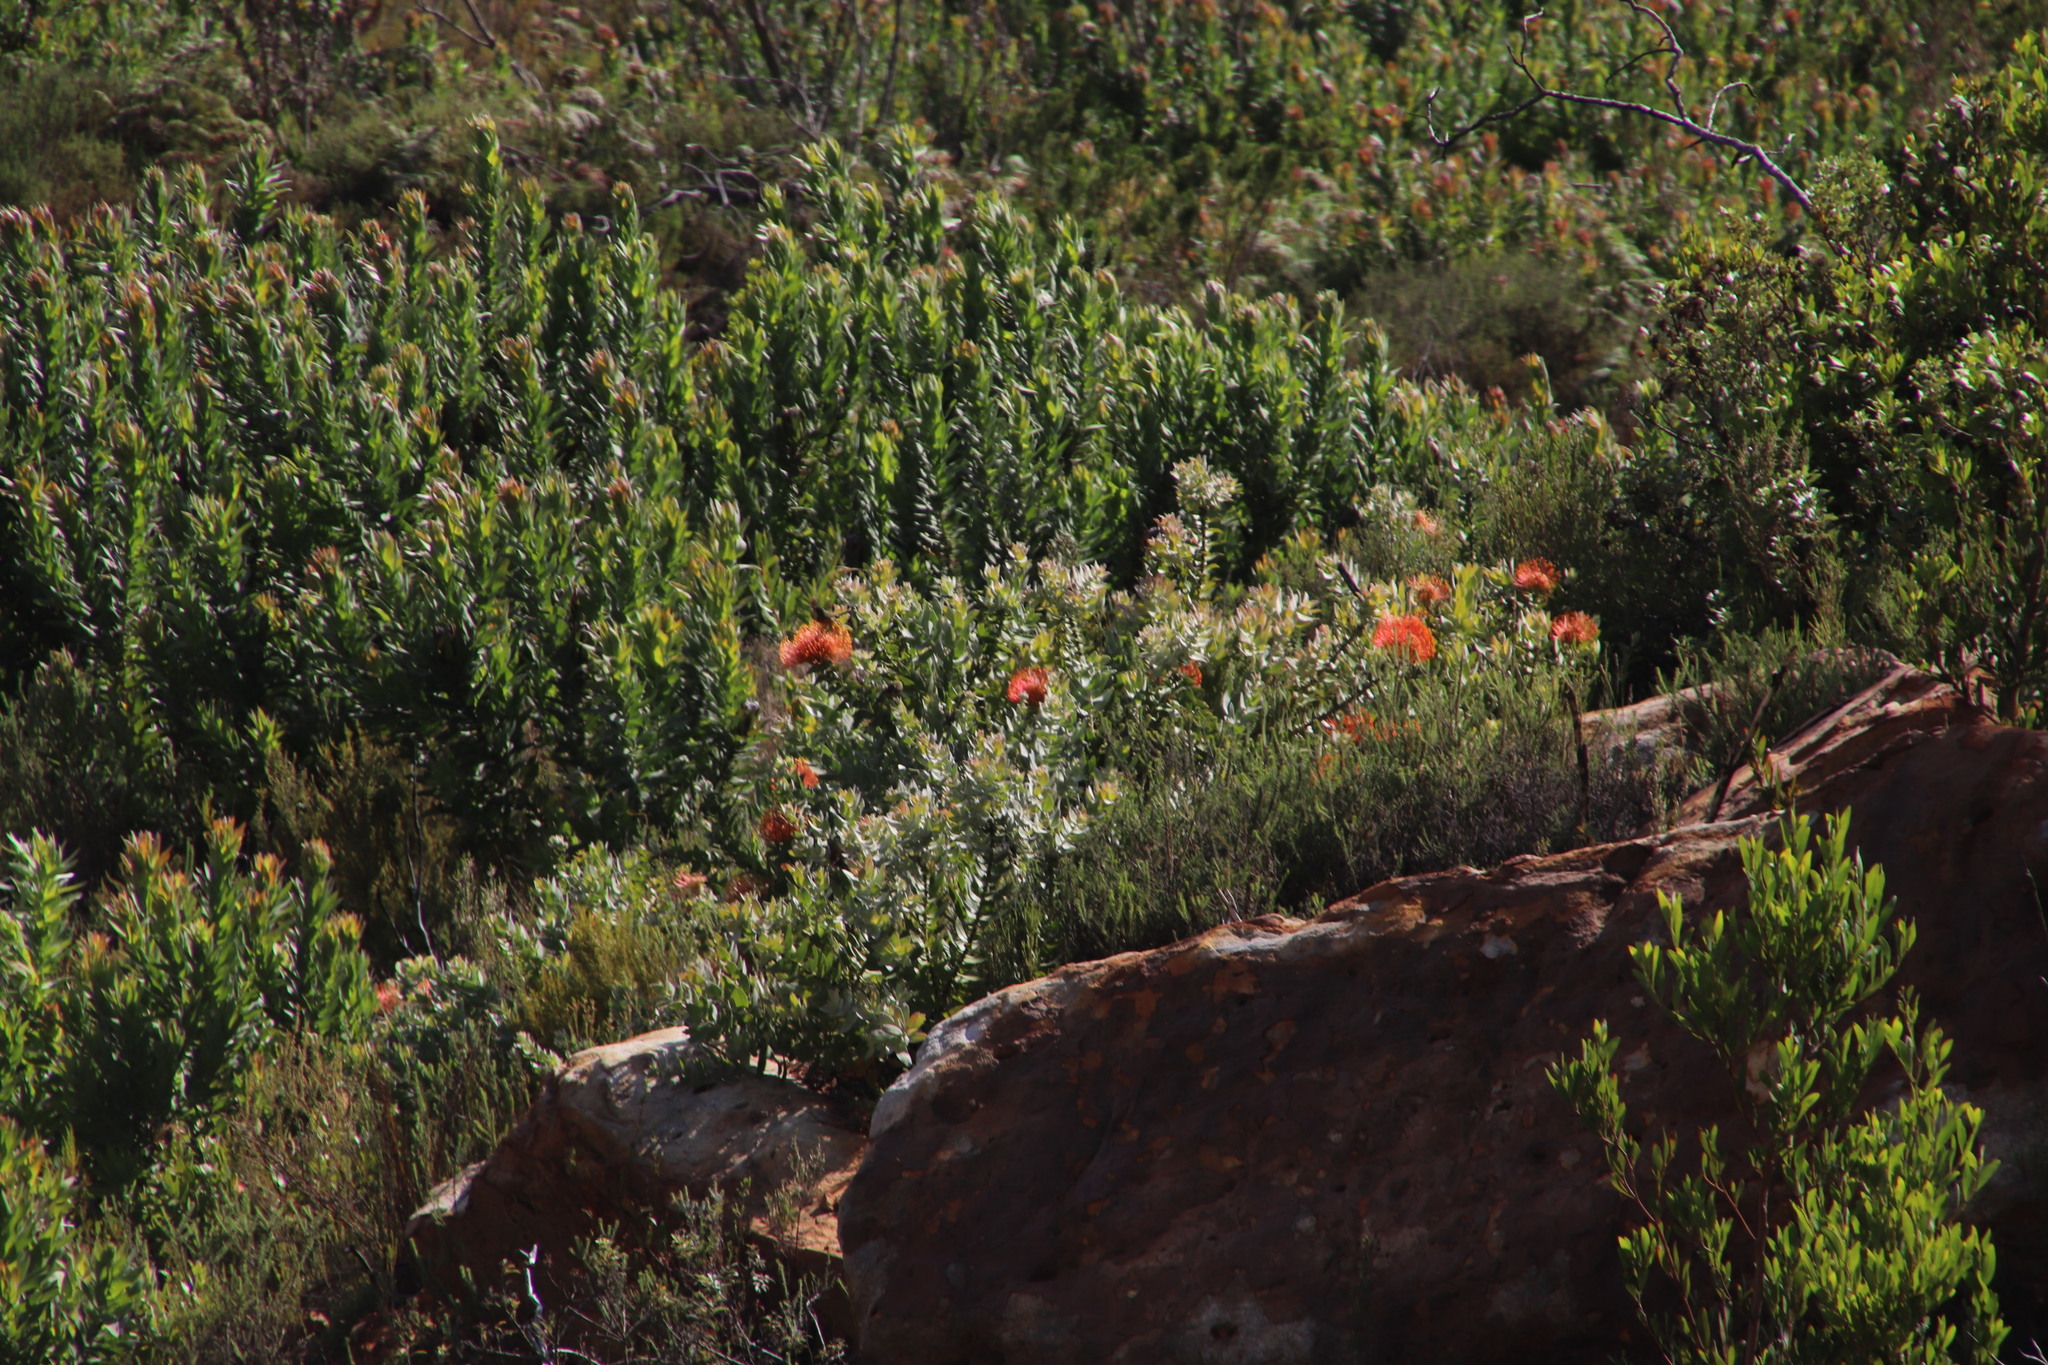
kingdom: Plantae
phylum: Tracheophyta
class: Magnoliopsida
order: Proteales
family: Proteaceae
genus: Leucospermum
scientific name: Leucospermum cordifolium
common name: Red pincushion-protea
